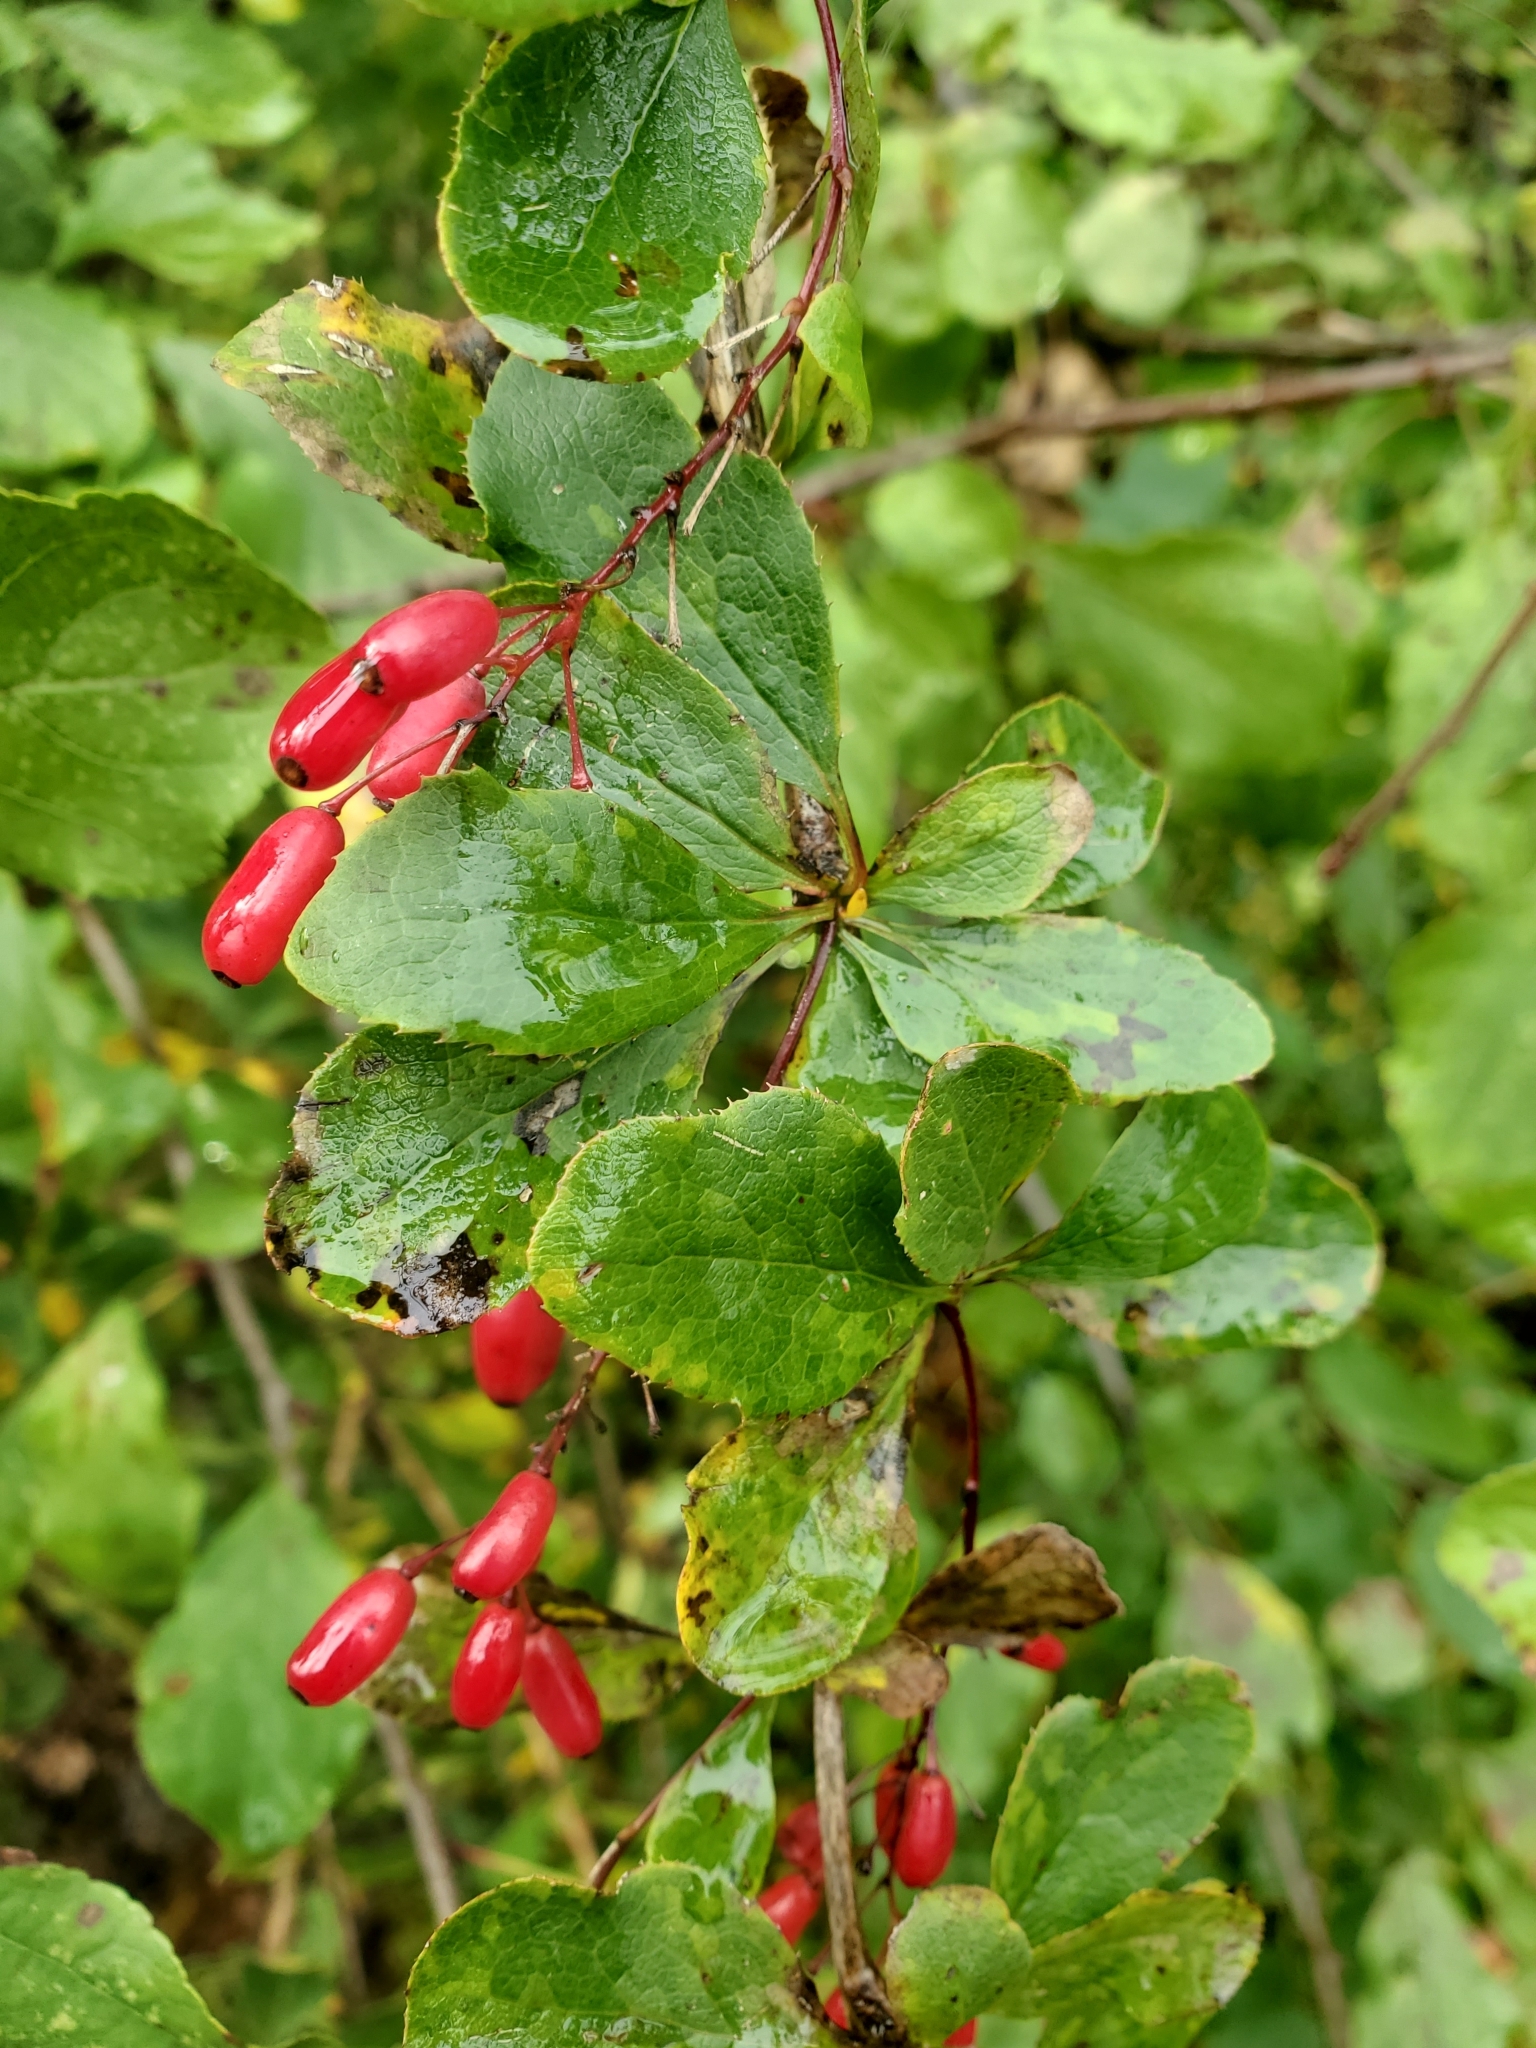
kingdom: Plantae
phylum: Tracheophyta
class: Magnoliopsida
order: Ranunculales
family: Berberidaceae
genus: Berberis
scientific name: Berberis vulgaris
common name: Barberry
